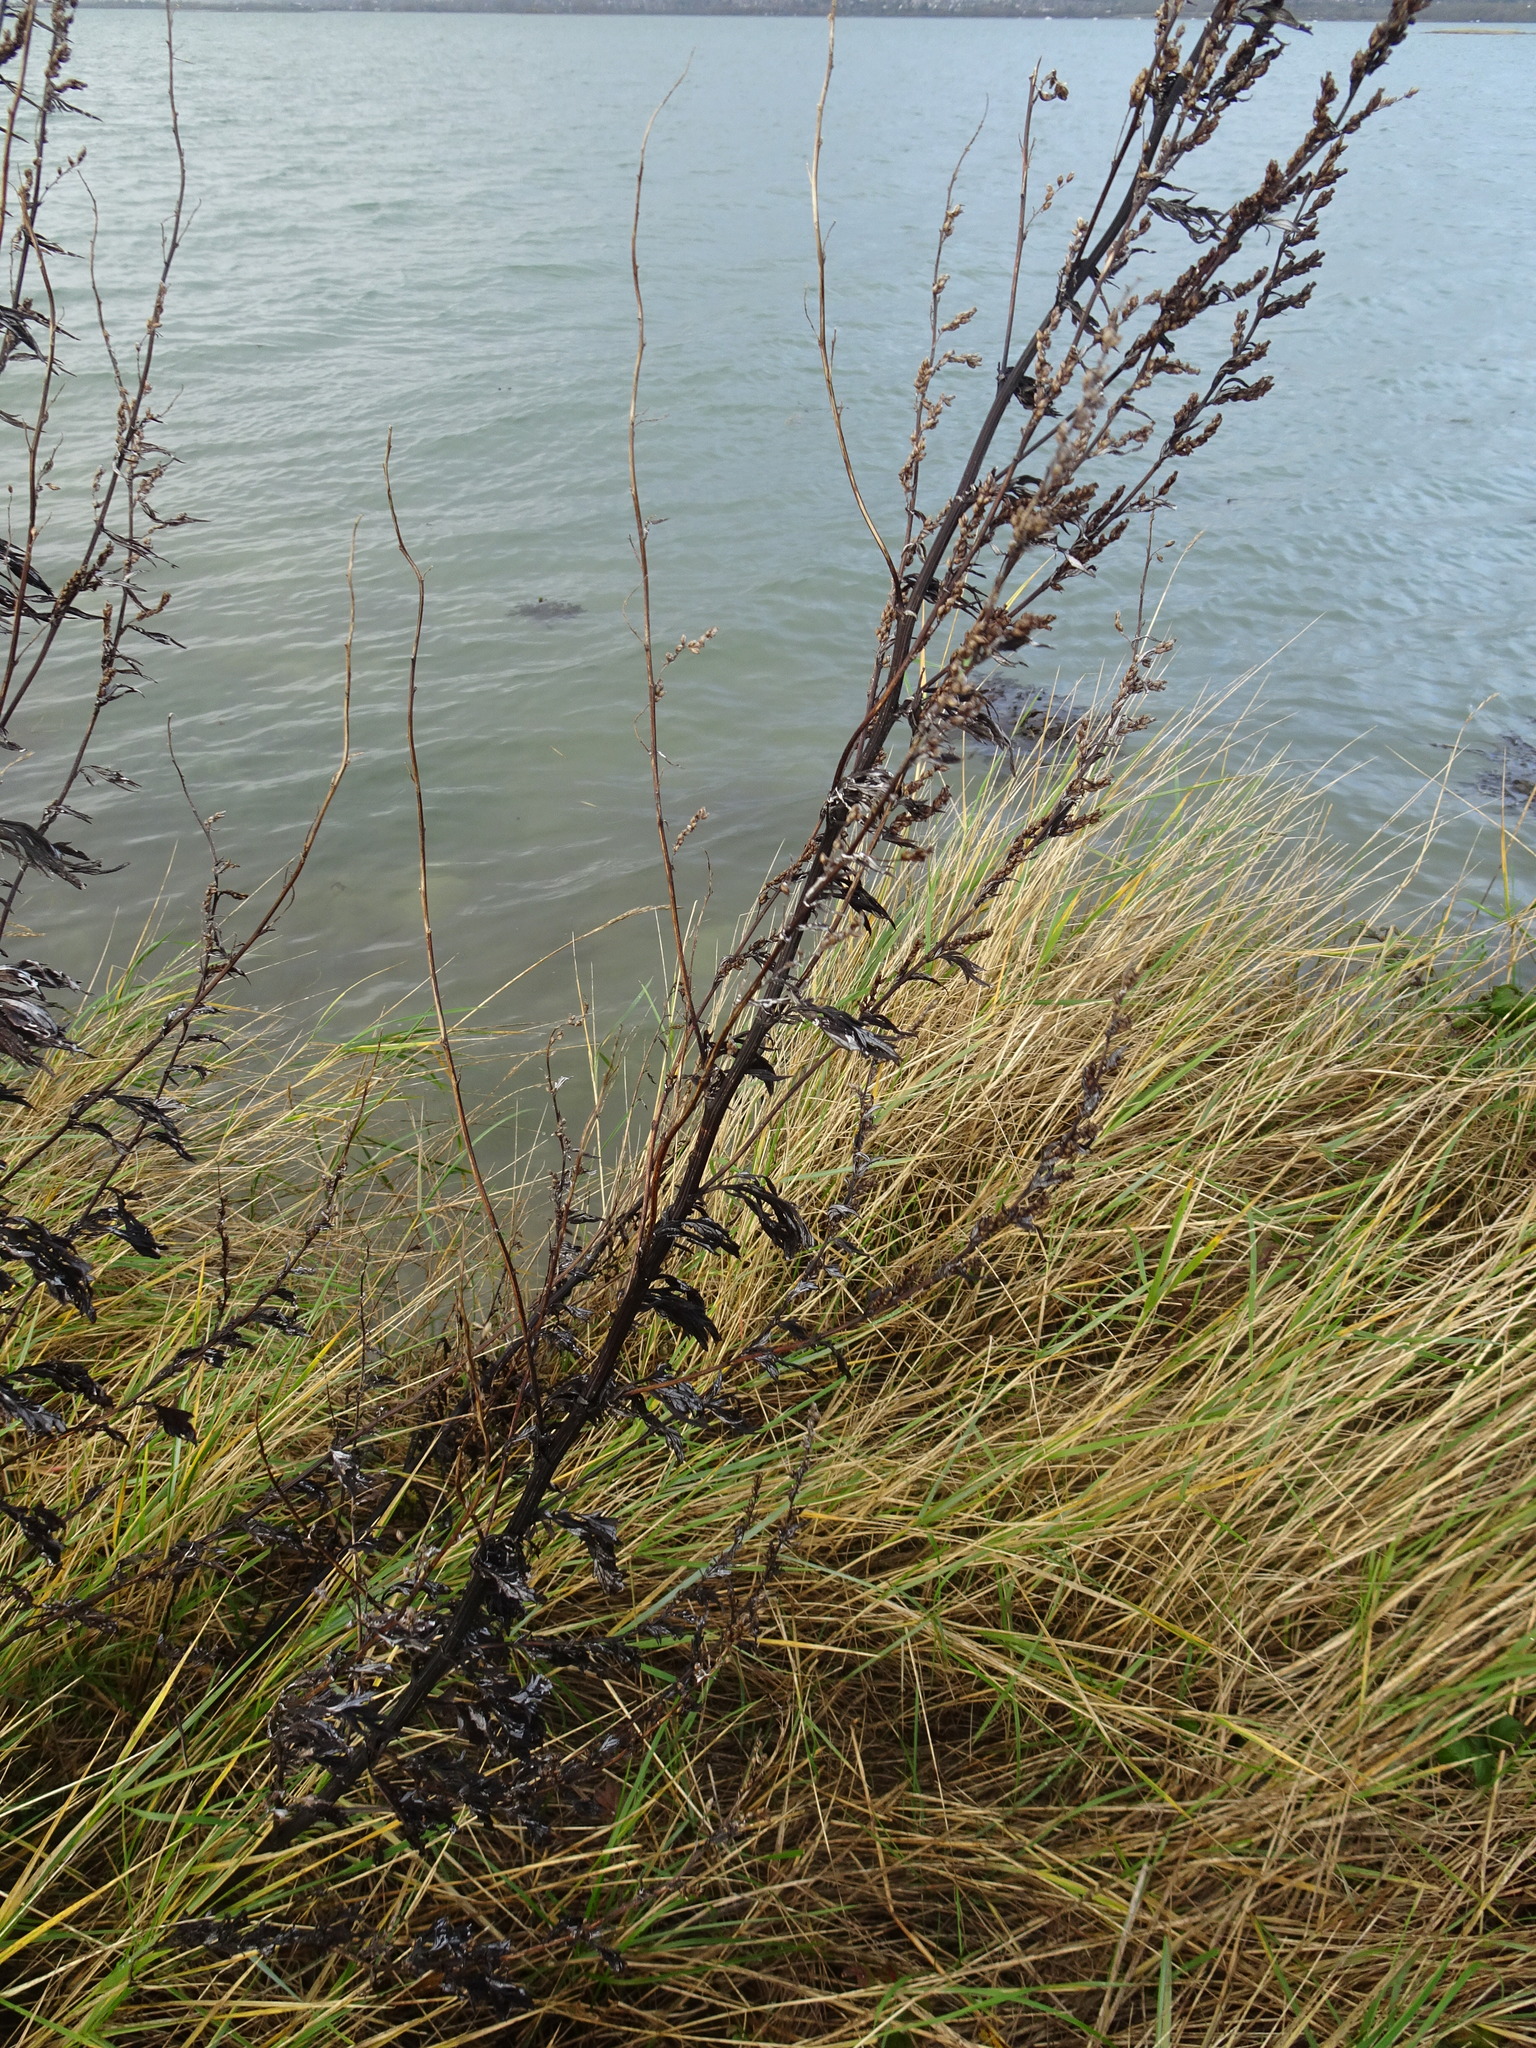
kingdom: Plantae
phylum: Tracheophyta
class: Magnoliopsida
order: Asterales
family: Asteraceae
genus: Artemisia
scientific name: Artemisia vulgaris
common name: Mugwort
